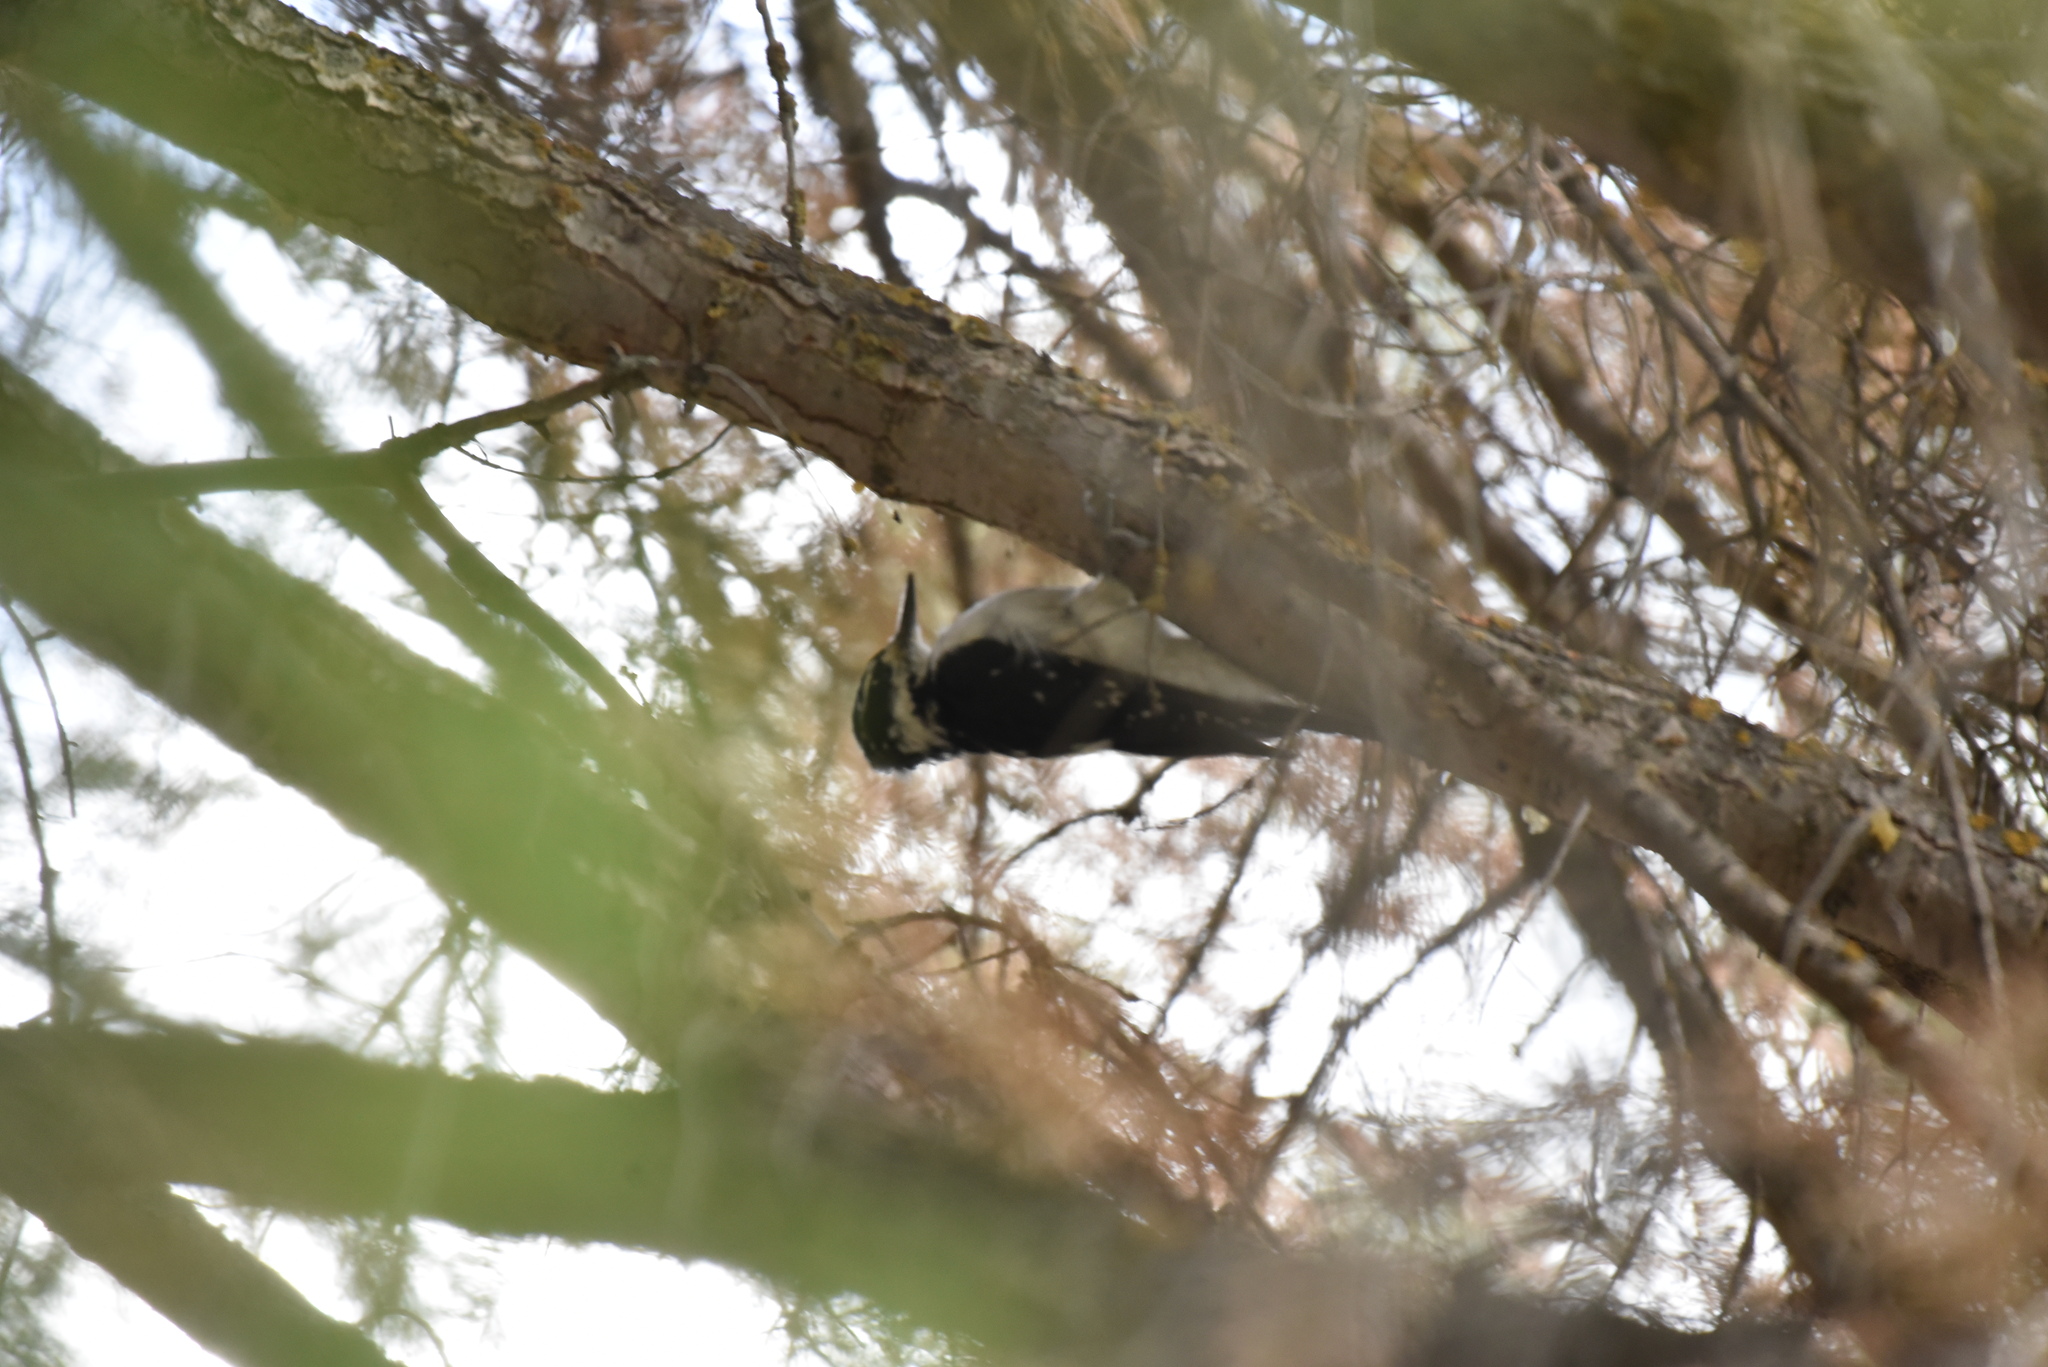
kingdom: Animalia
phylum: Chordata
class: Aves
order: Piciformes
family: Picidae
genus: Leuconotopicus
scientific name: Leuconotopicus villosus
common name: Hairy woodpecker
